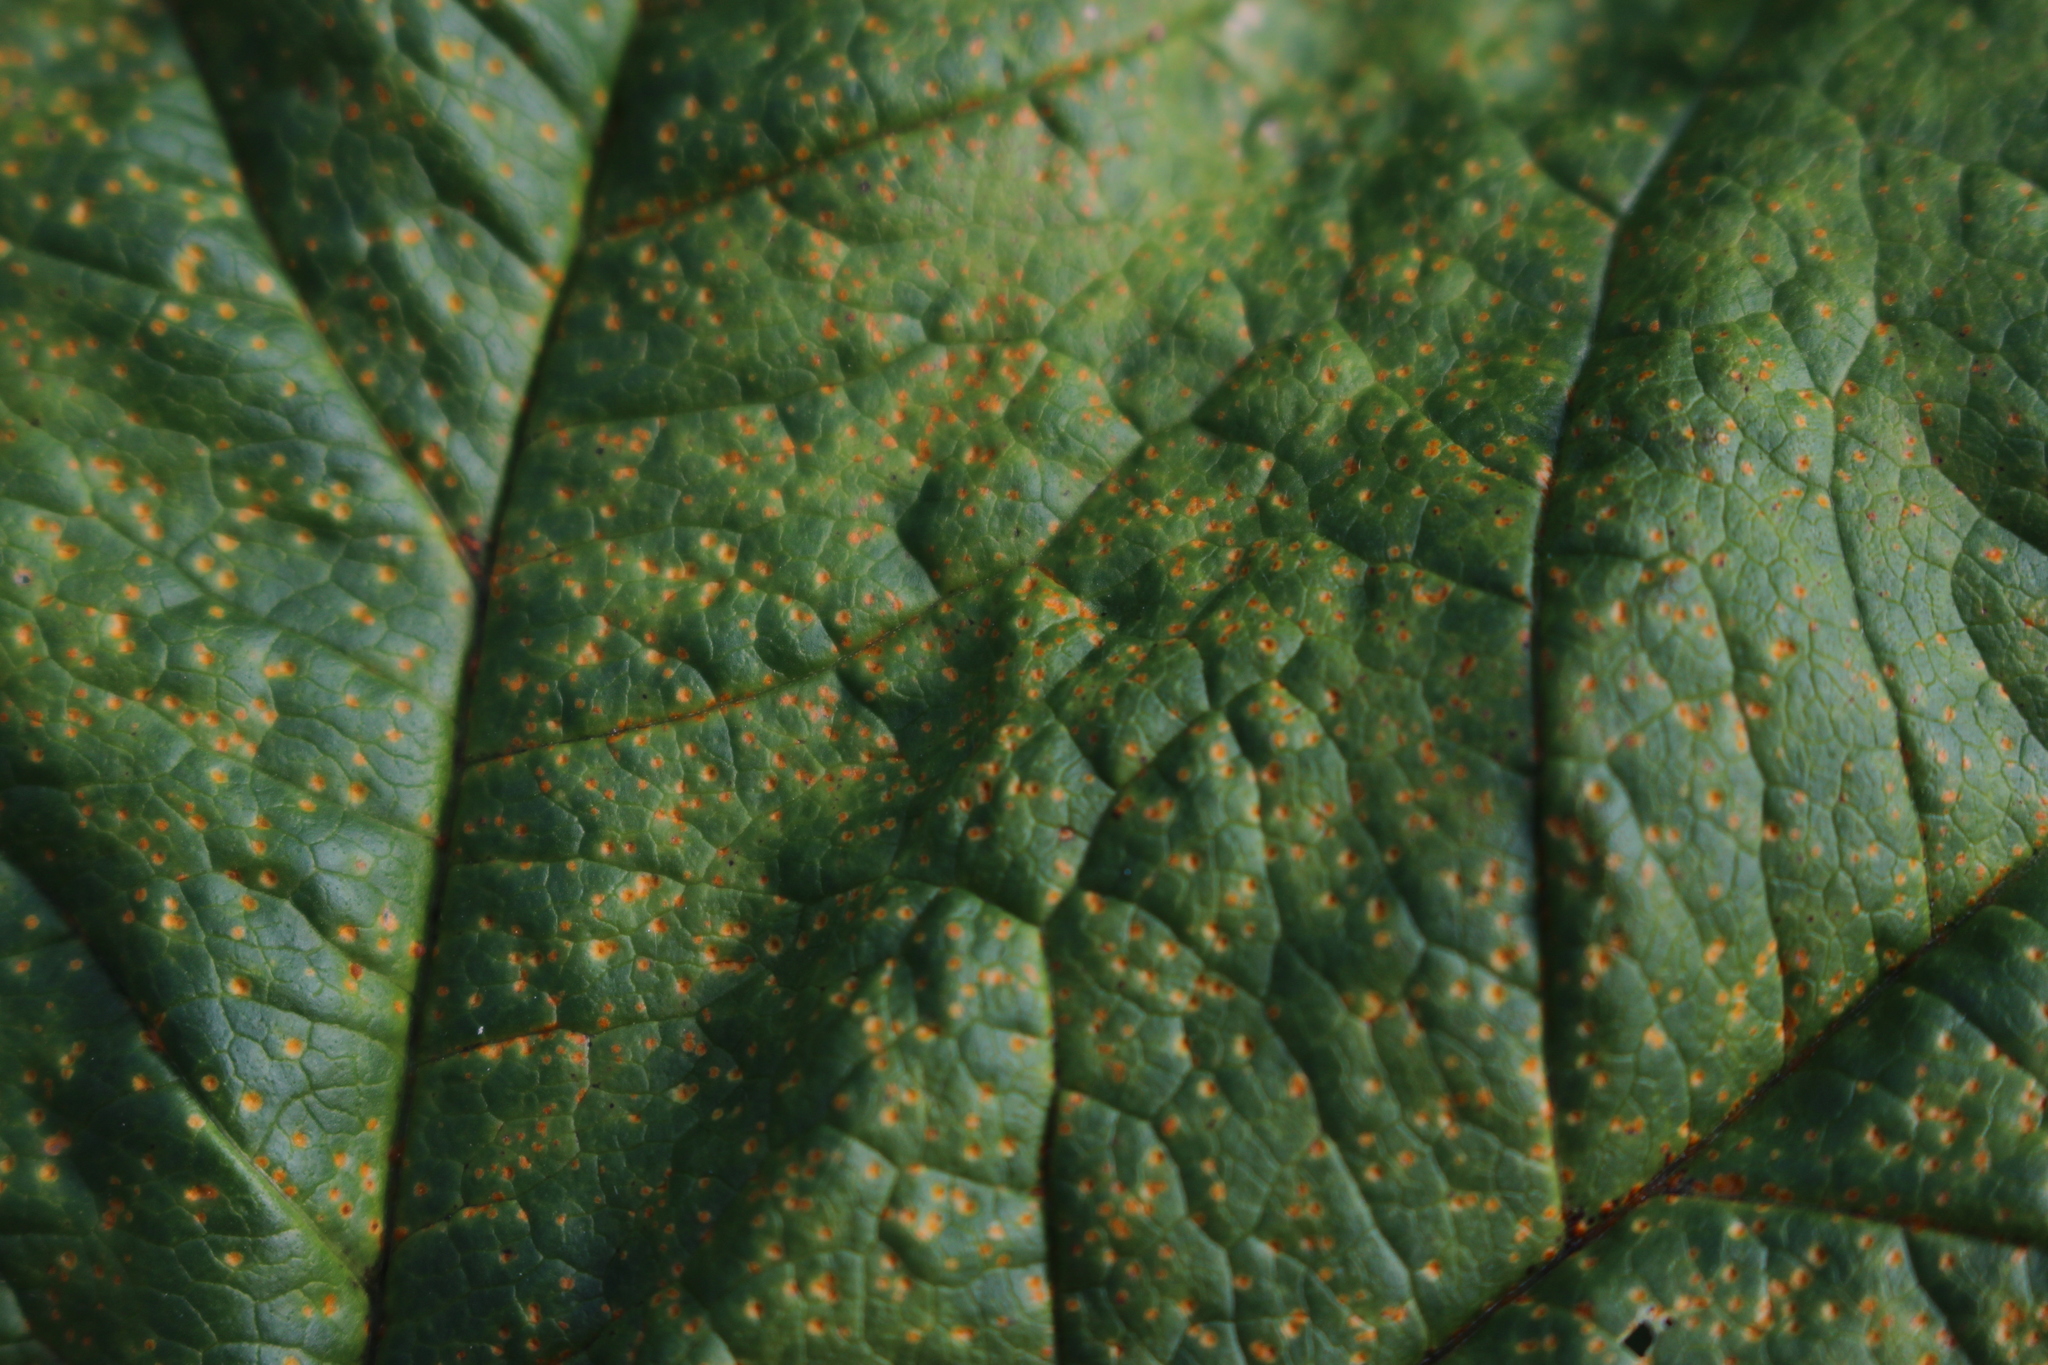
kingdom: Fungi
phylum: Basidiomycota
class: Pucciniomycetes
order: Pucciniales
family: Pucciniaceae
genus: Puccinia
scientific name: Puccinia malvacearum
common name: Hollyhock rust
